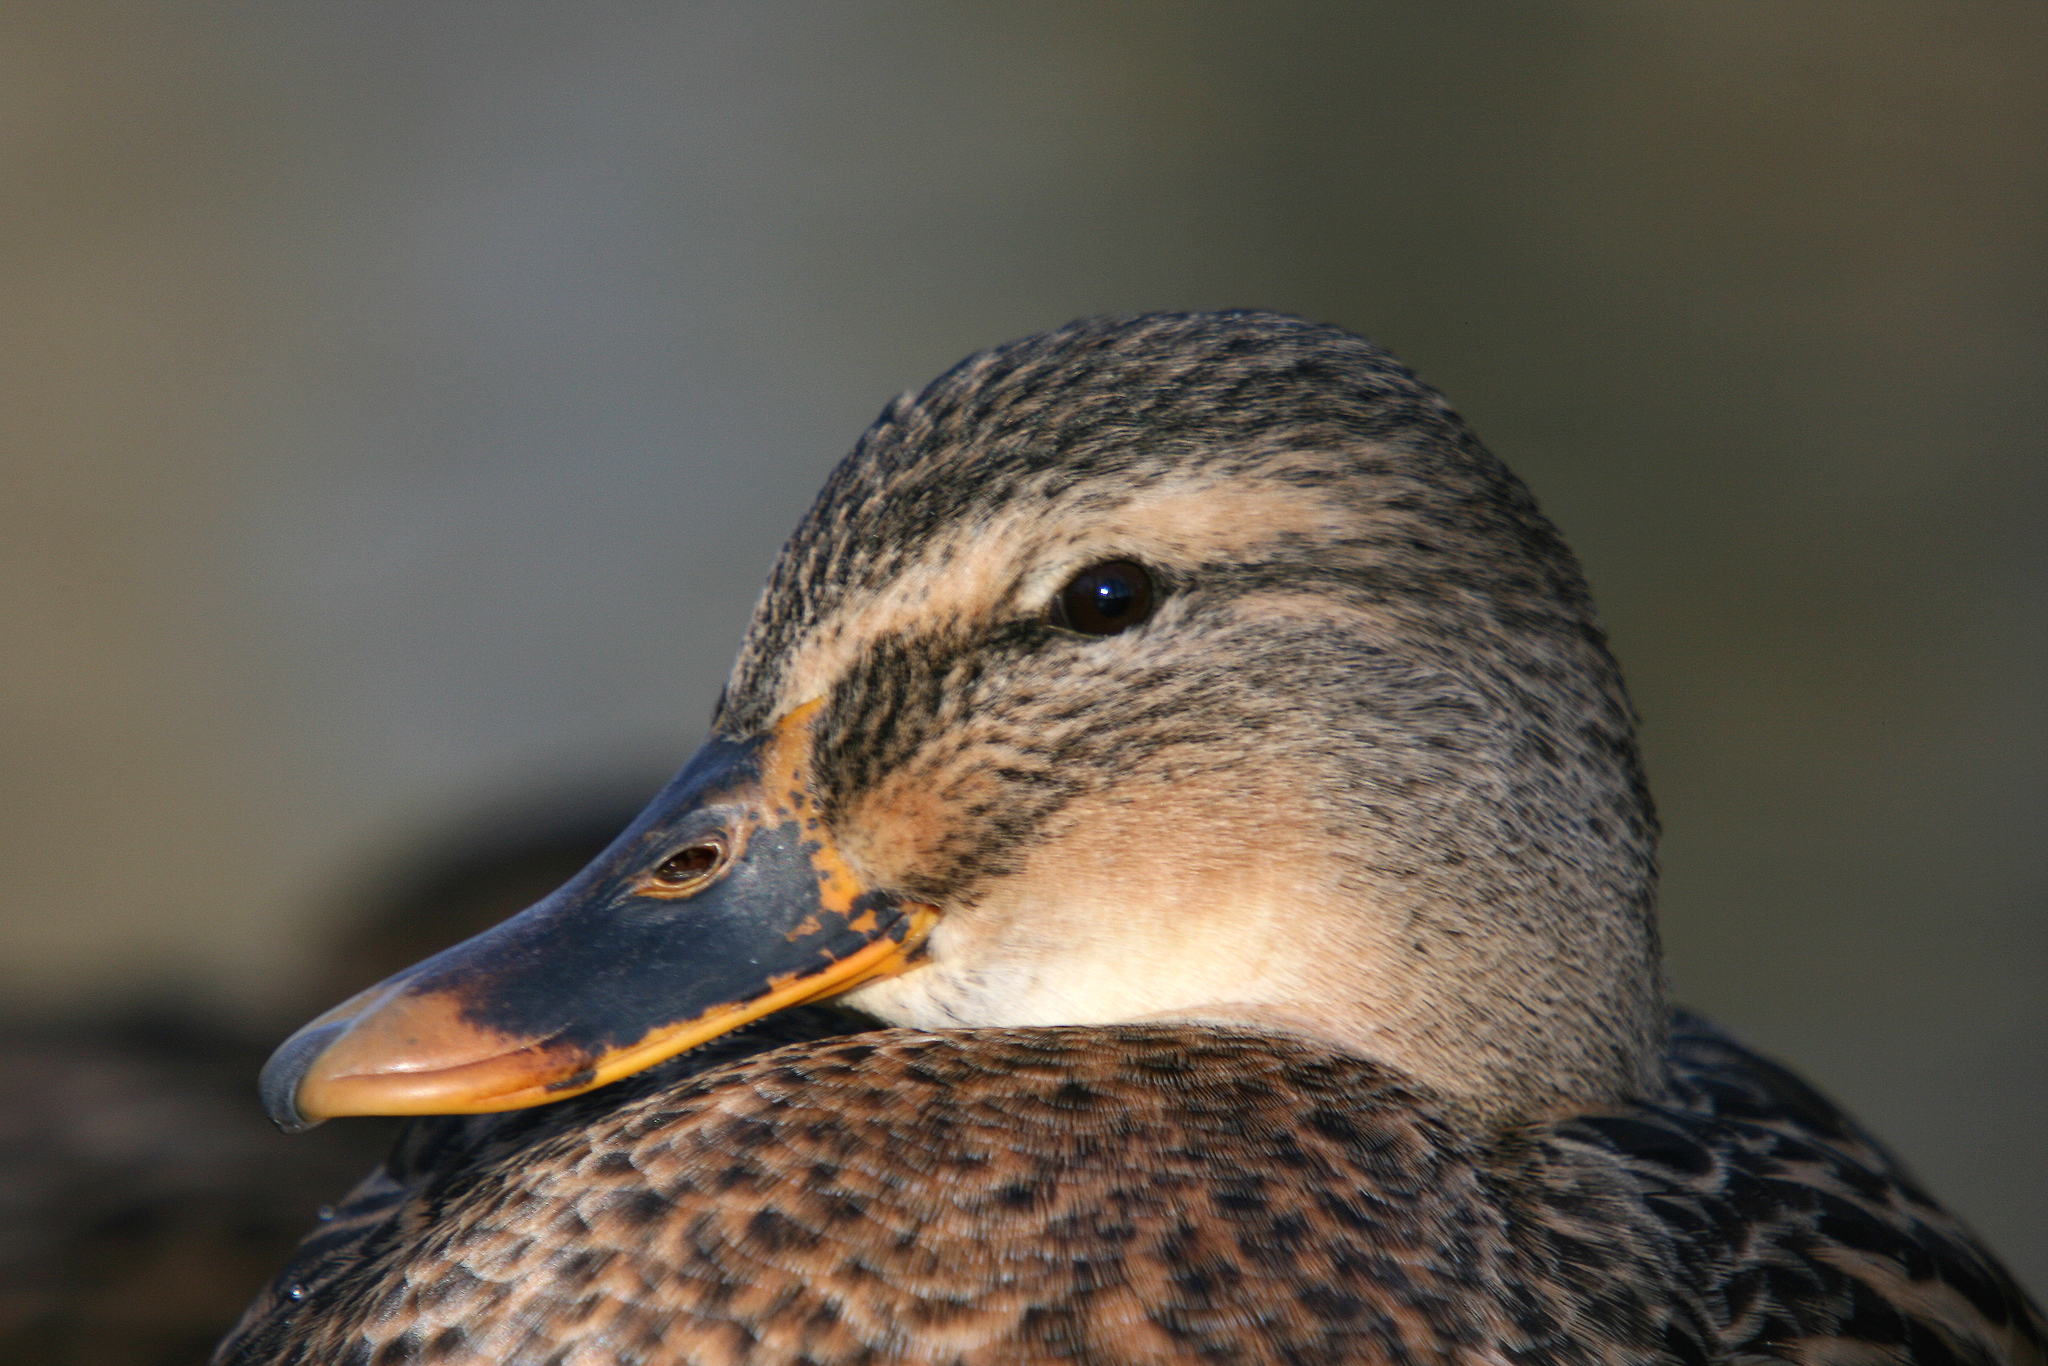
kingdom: Animalia
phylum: Chordata
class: Aves
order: Anseriformes
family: Anatidae
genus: Anas
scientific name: Anas platyrhynchos
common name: Mallard
